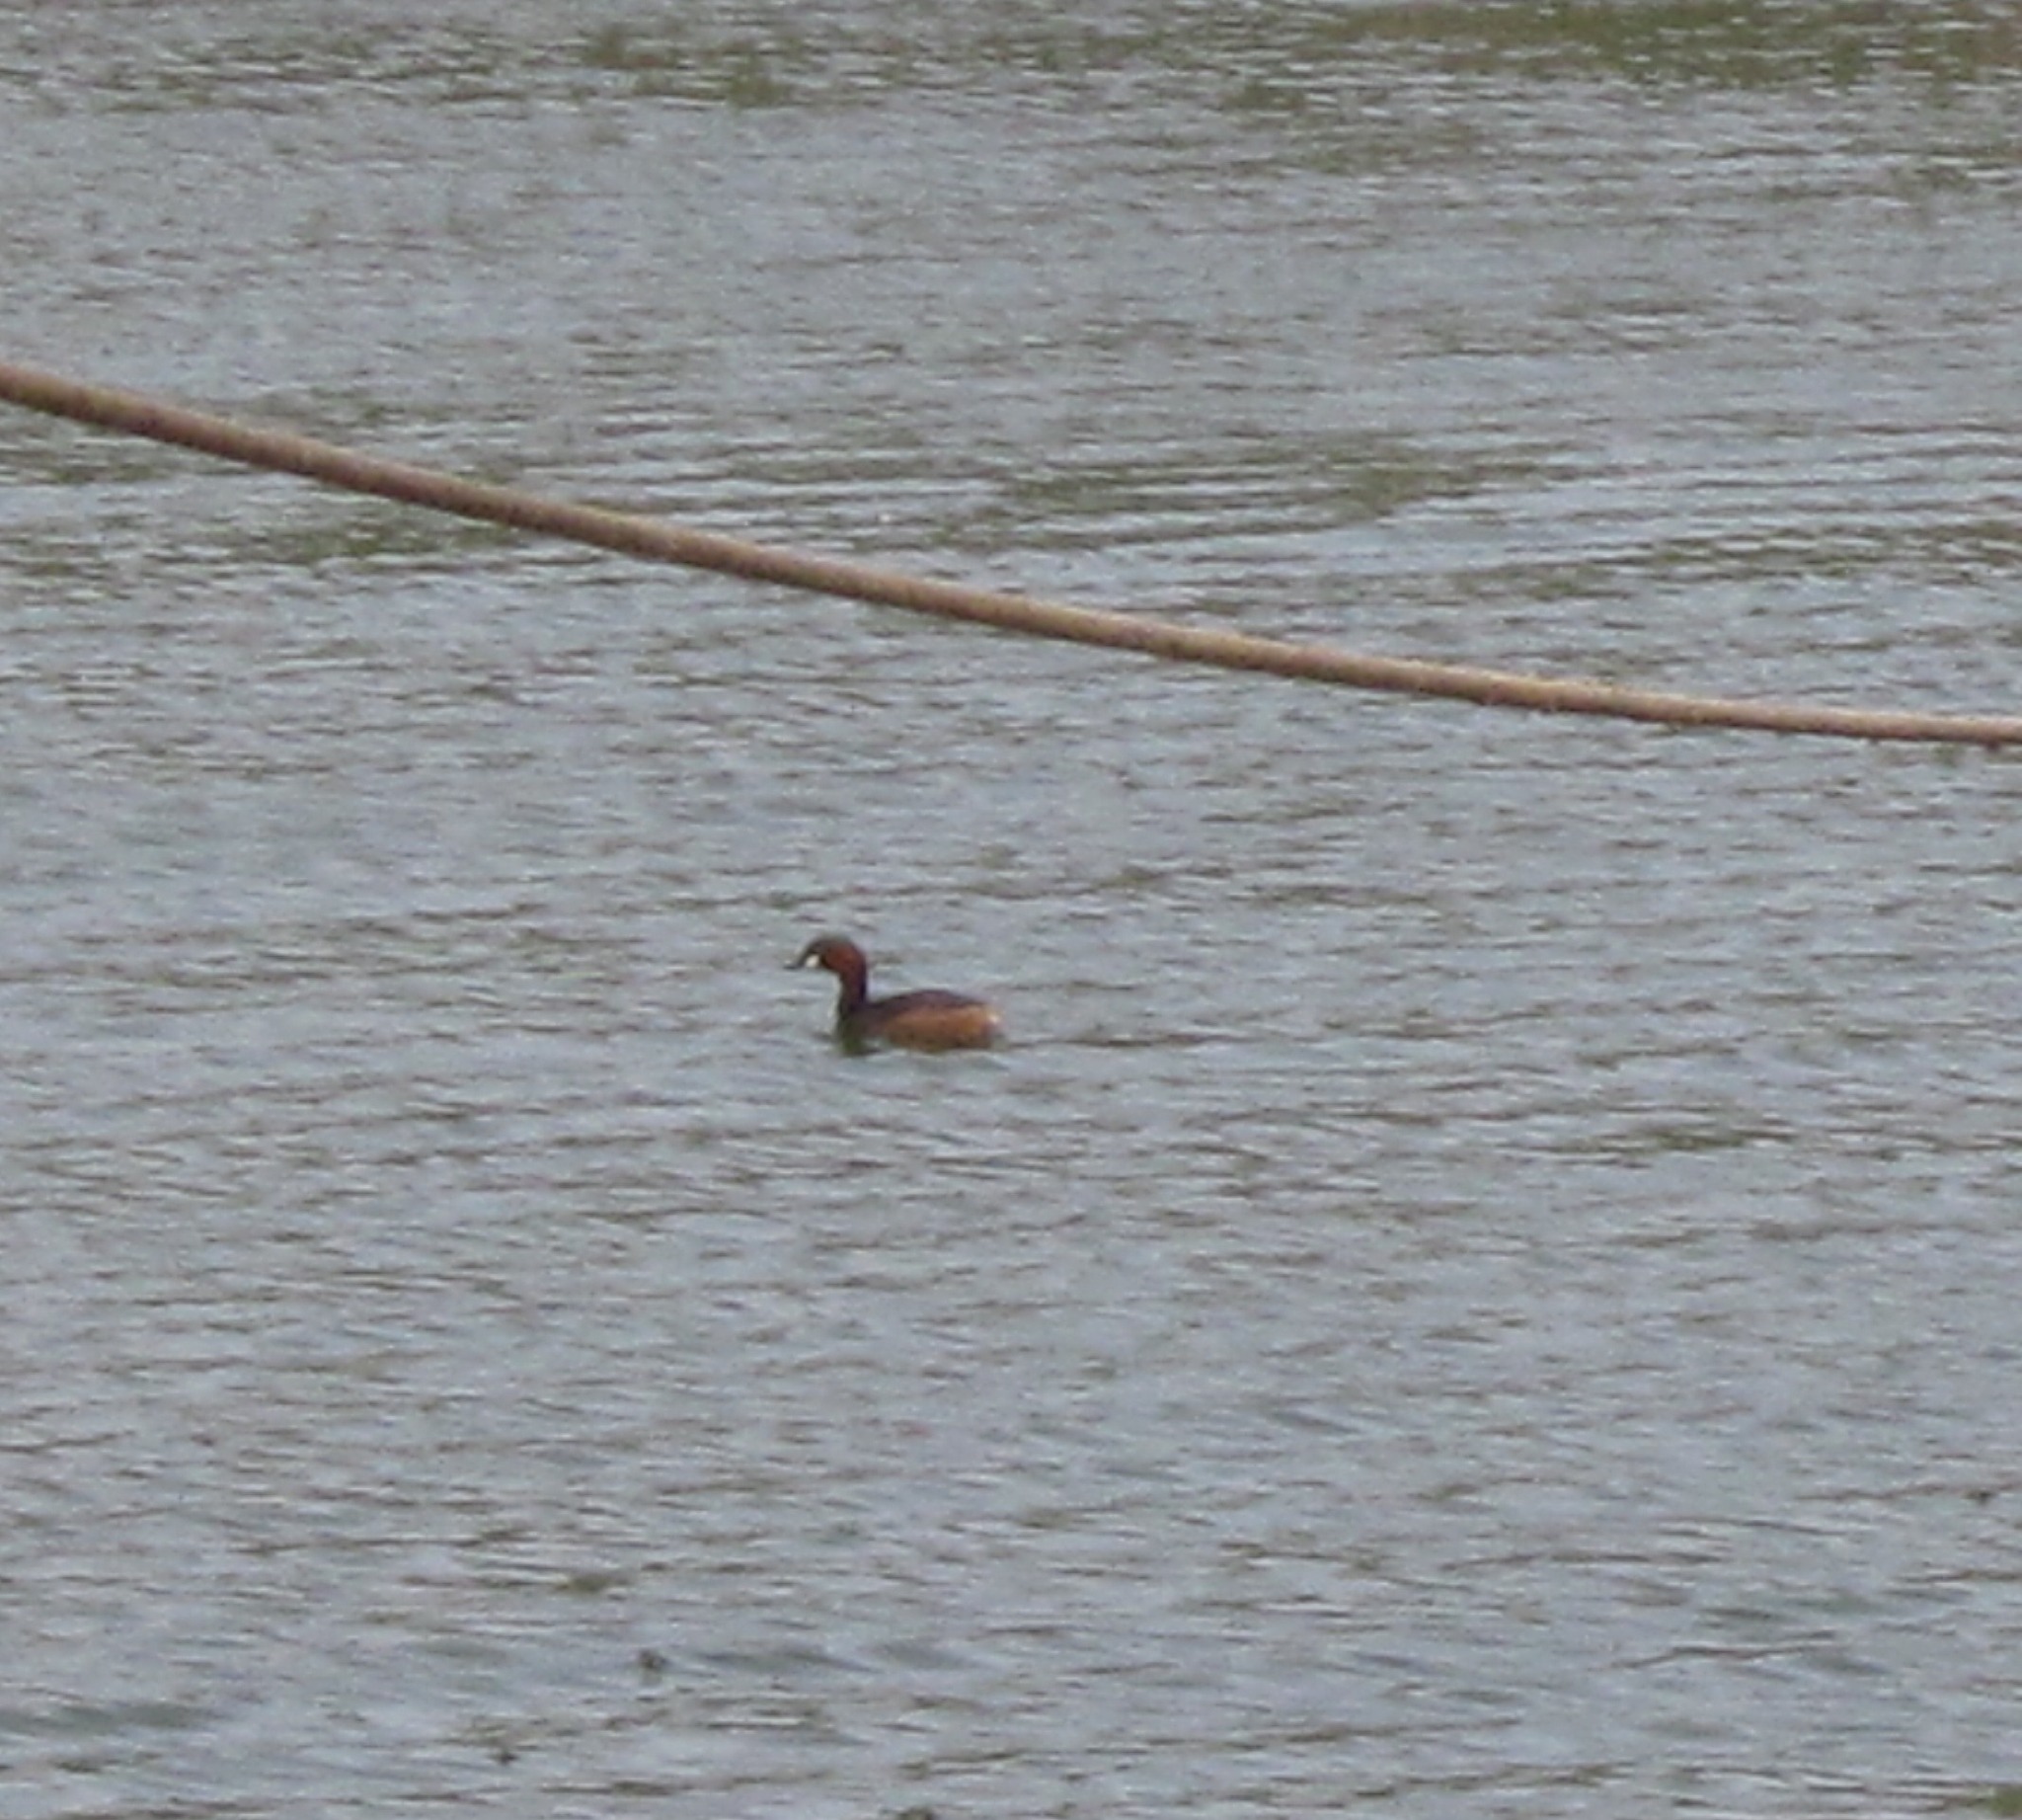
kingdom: Animalia
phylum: Chordata
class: Aves
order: Podicipediformes
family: Podicipedidae
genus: Tachybaptus
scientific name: Tachybaptus ruficollis
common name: Little grebe
